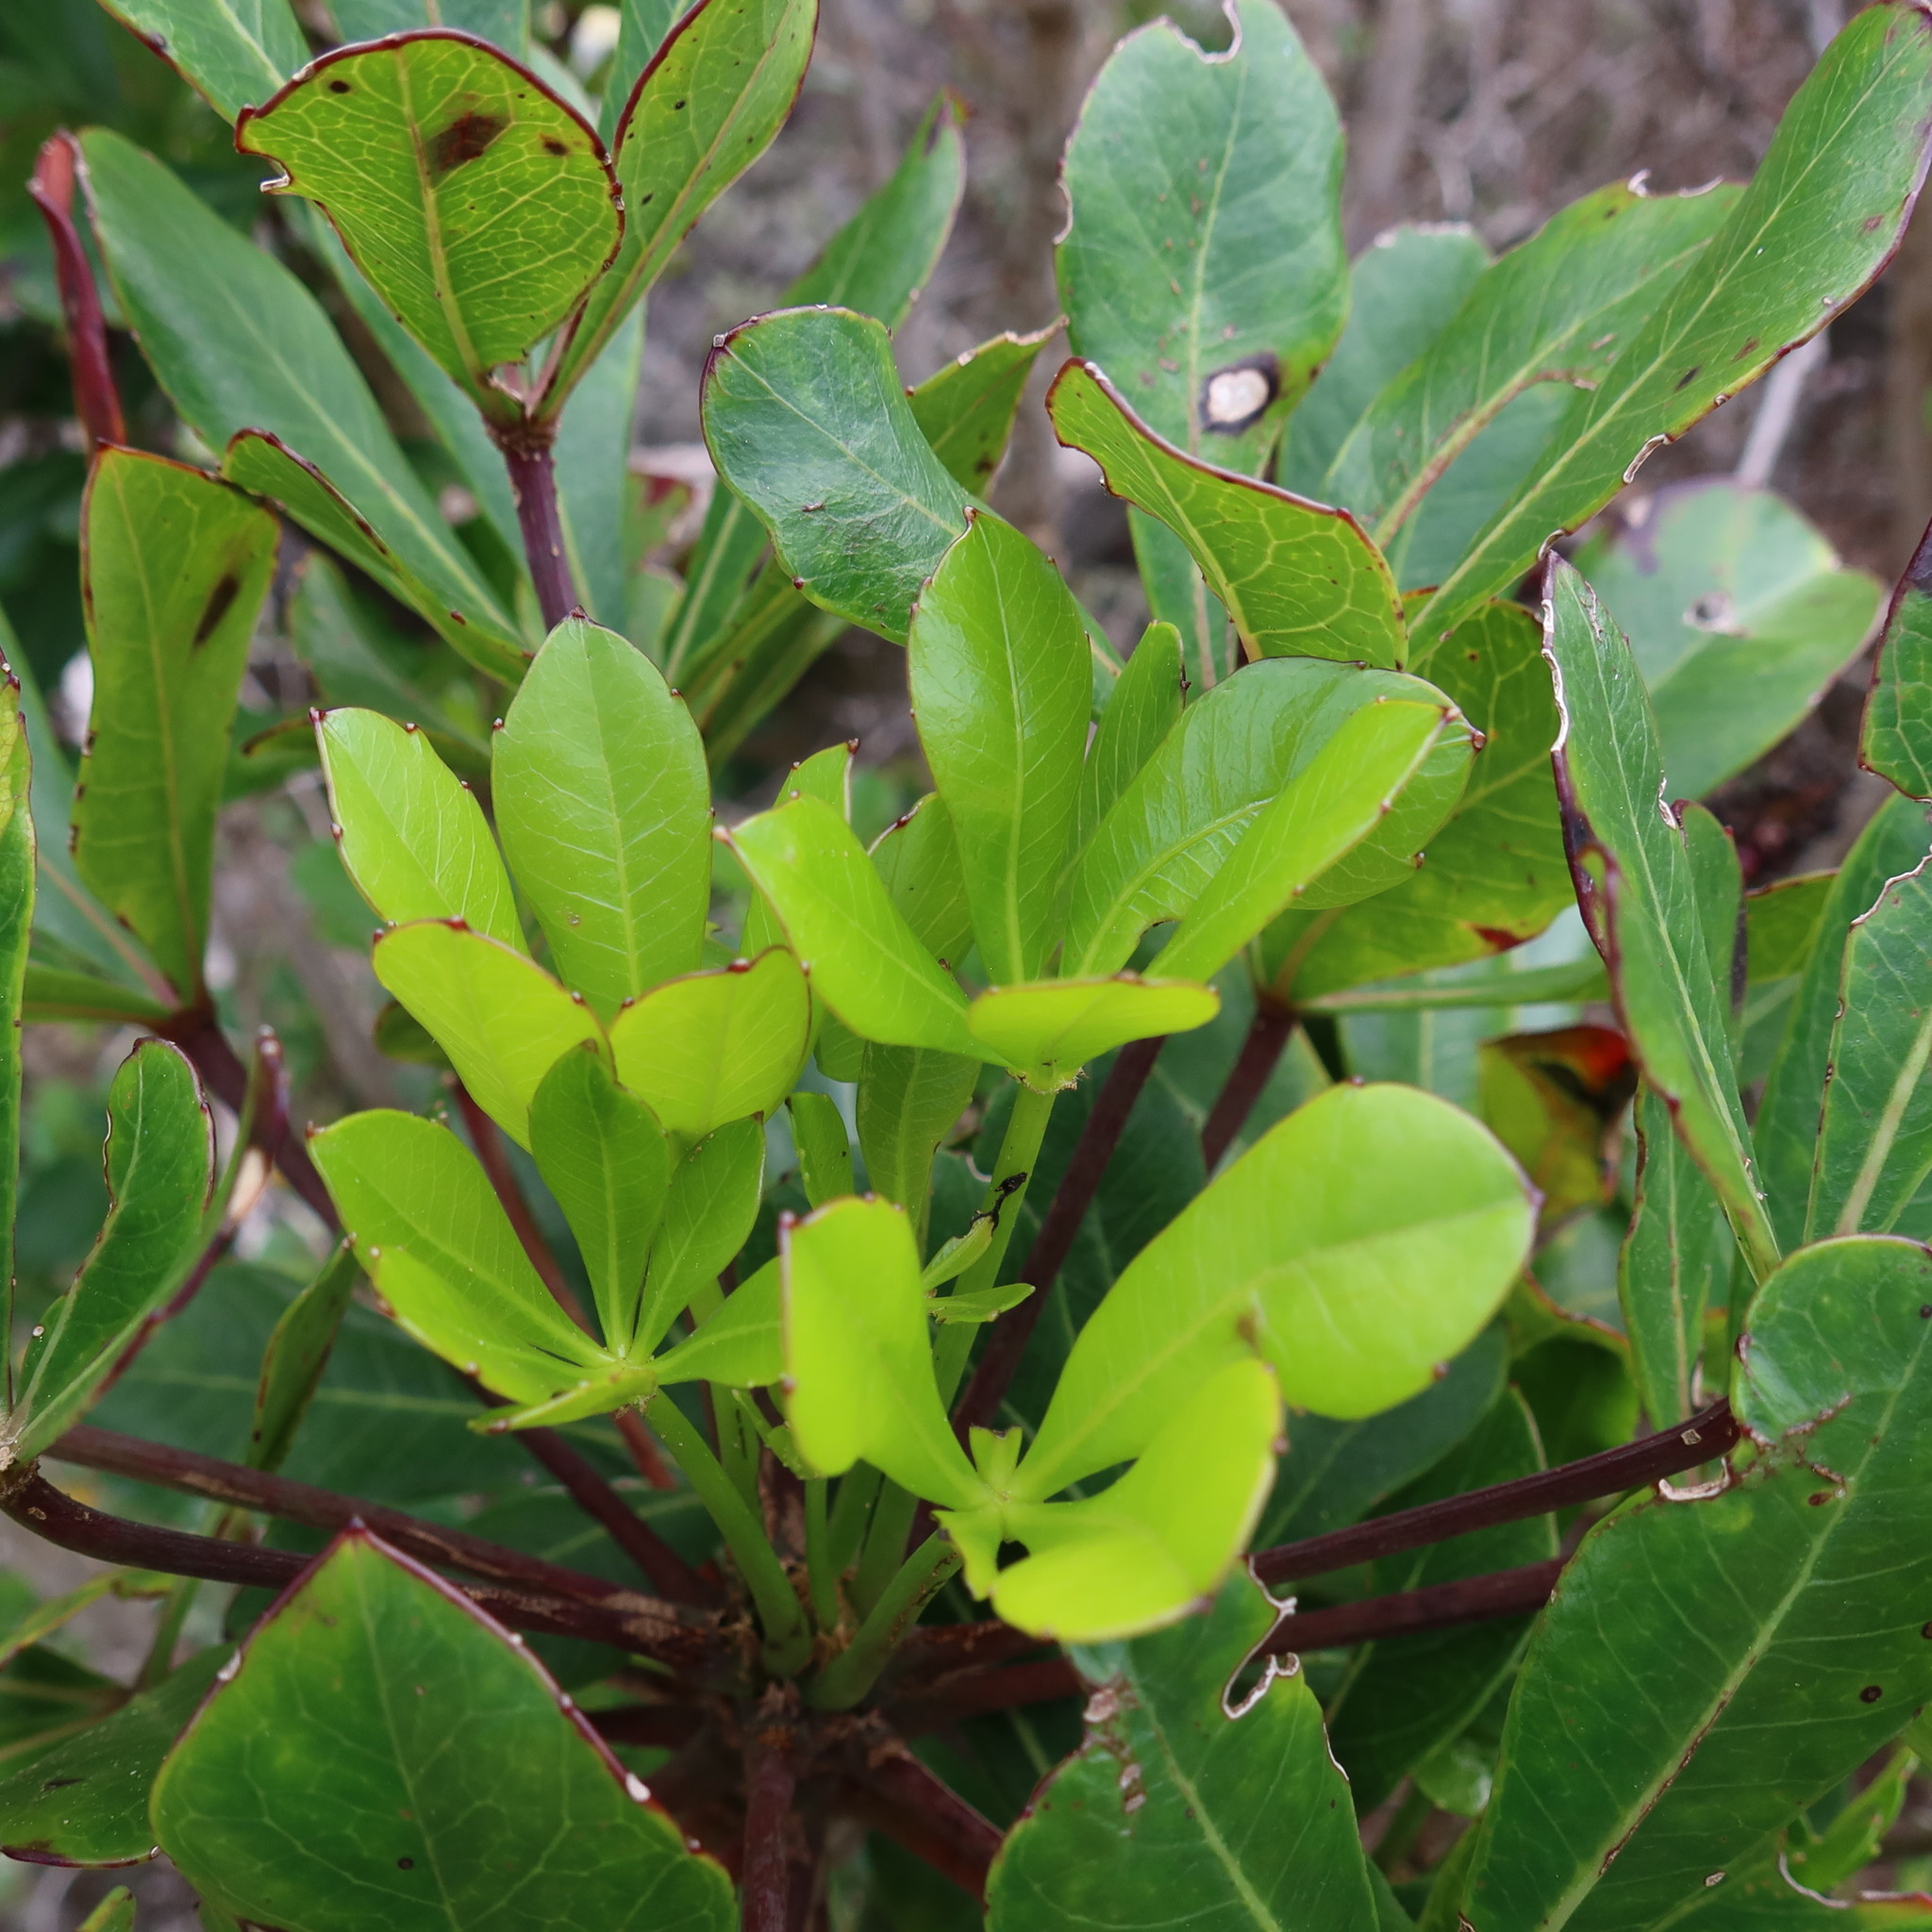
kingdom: Plantae
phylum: Tracheophyta
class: Magnoliopsida
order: Apiales
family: Araliaceae
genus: Cussonia
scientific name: Cussonia thyrsiflora
